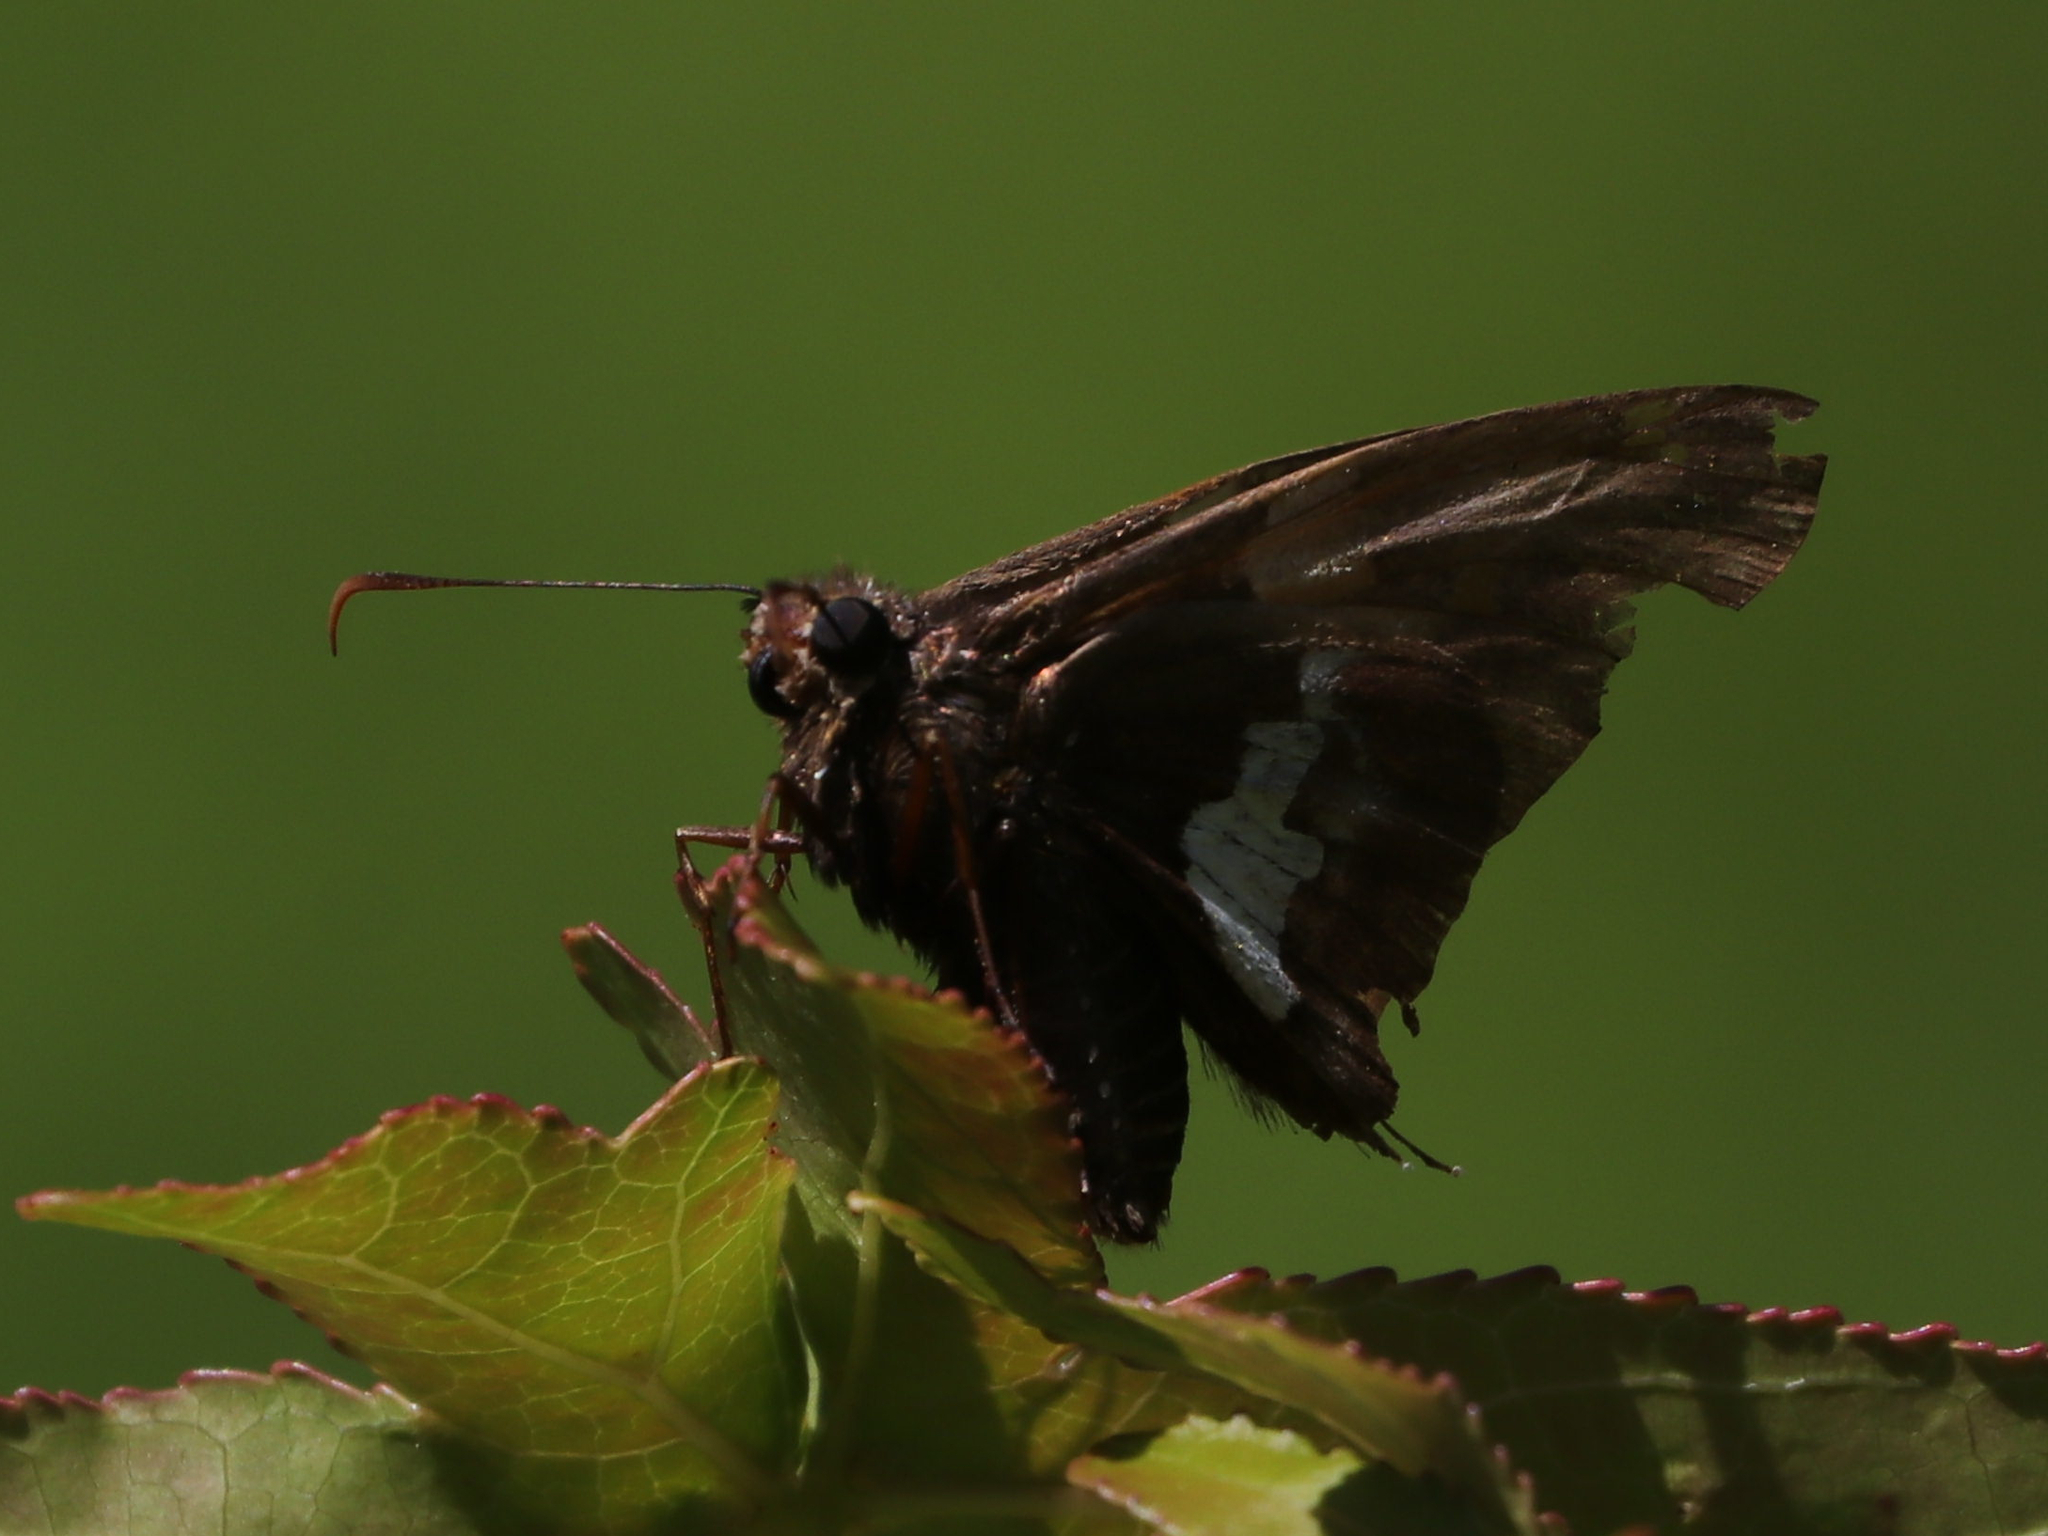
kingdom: Animalia
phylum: Arthropoda
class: Insecta
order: Lepidoptera
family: Hesperiidae
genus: Epargyreus
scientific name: Epargyreus clarus
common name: Silver-spotted skipper
